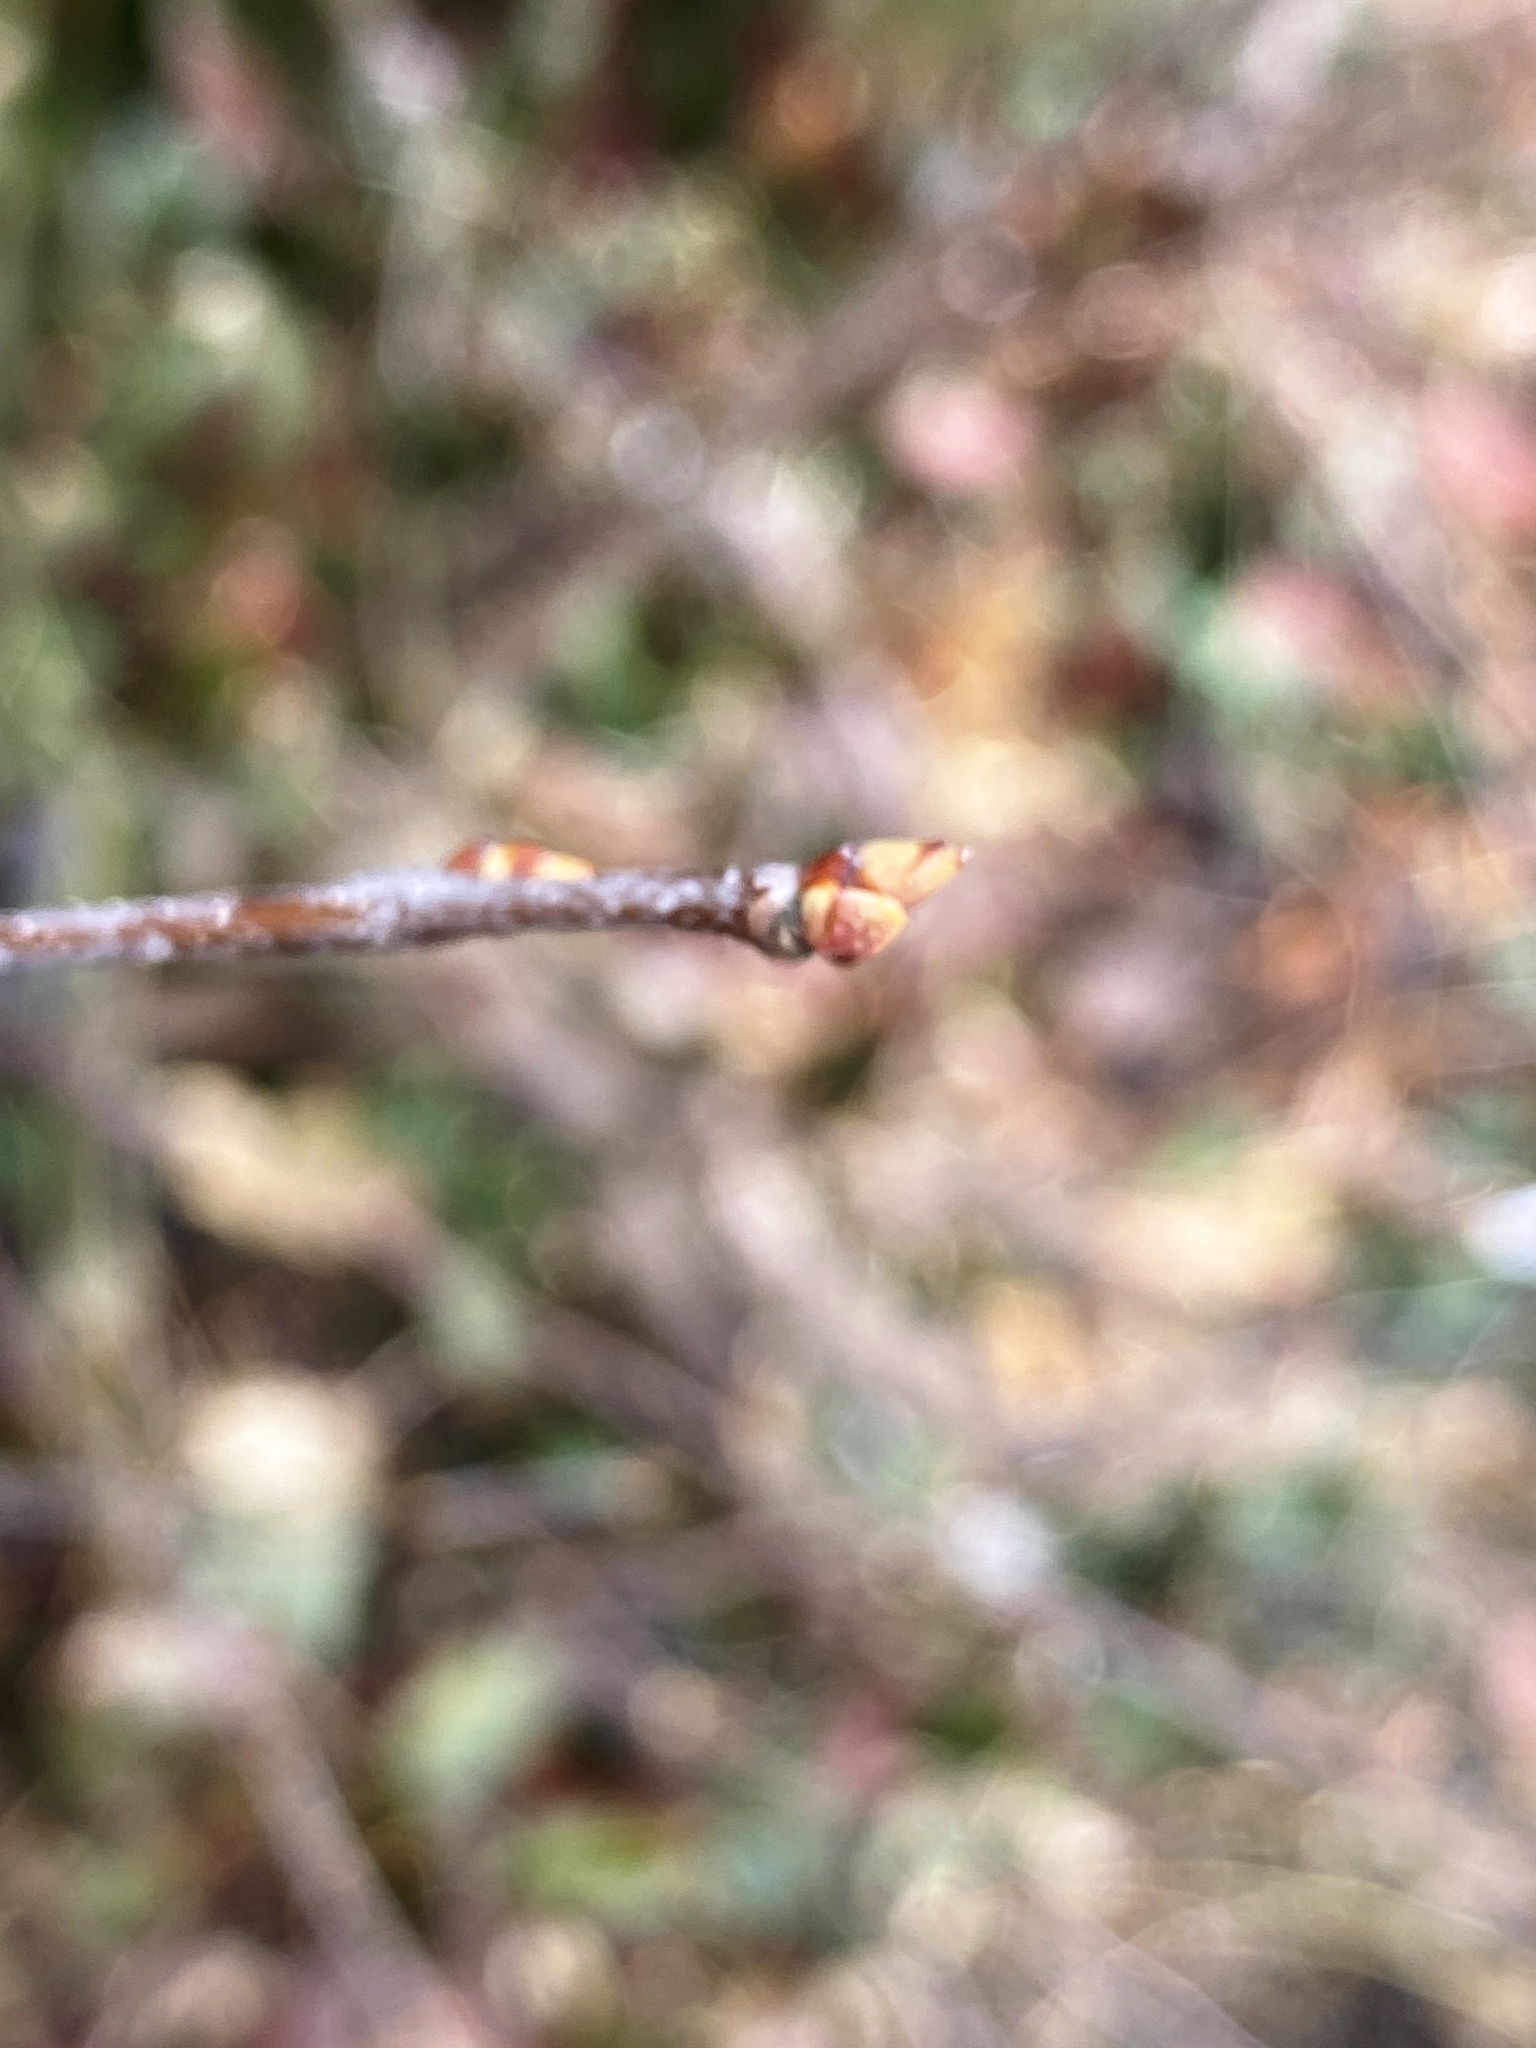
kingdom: Plantae
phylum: Tracheophyta
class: Magnoliopsida
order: Rosales
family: Rosaceae
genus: Prunus
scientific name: Prunus serotina
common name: Black cherry
